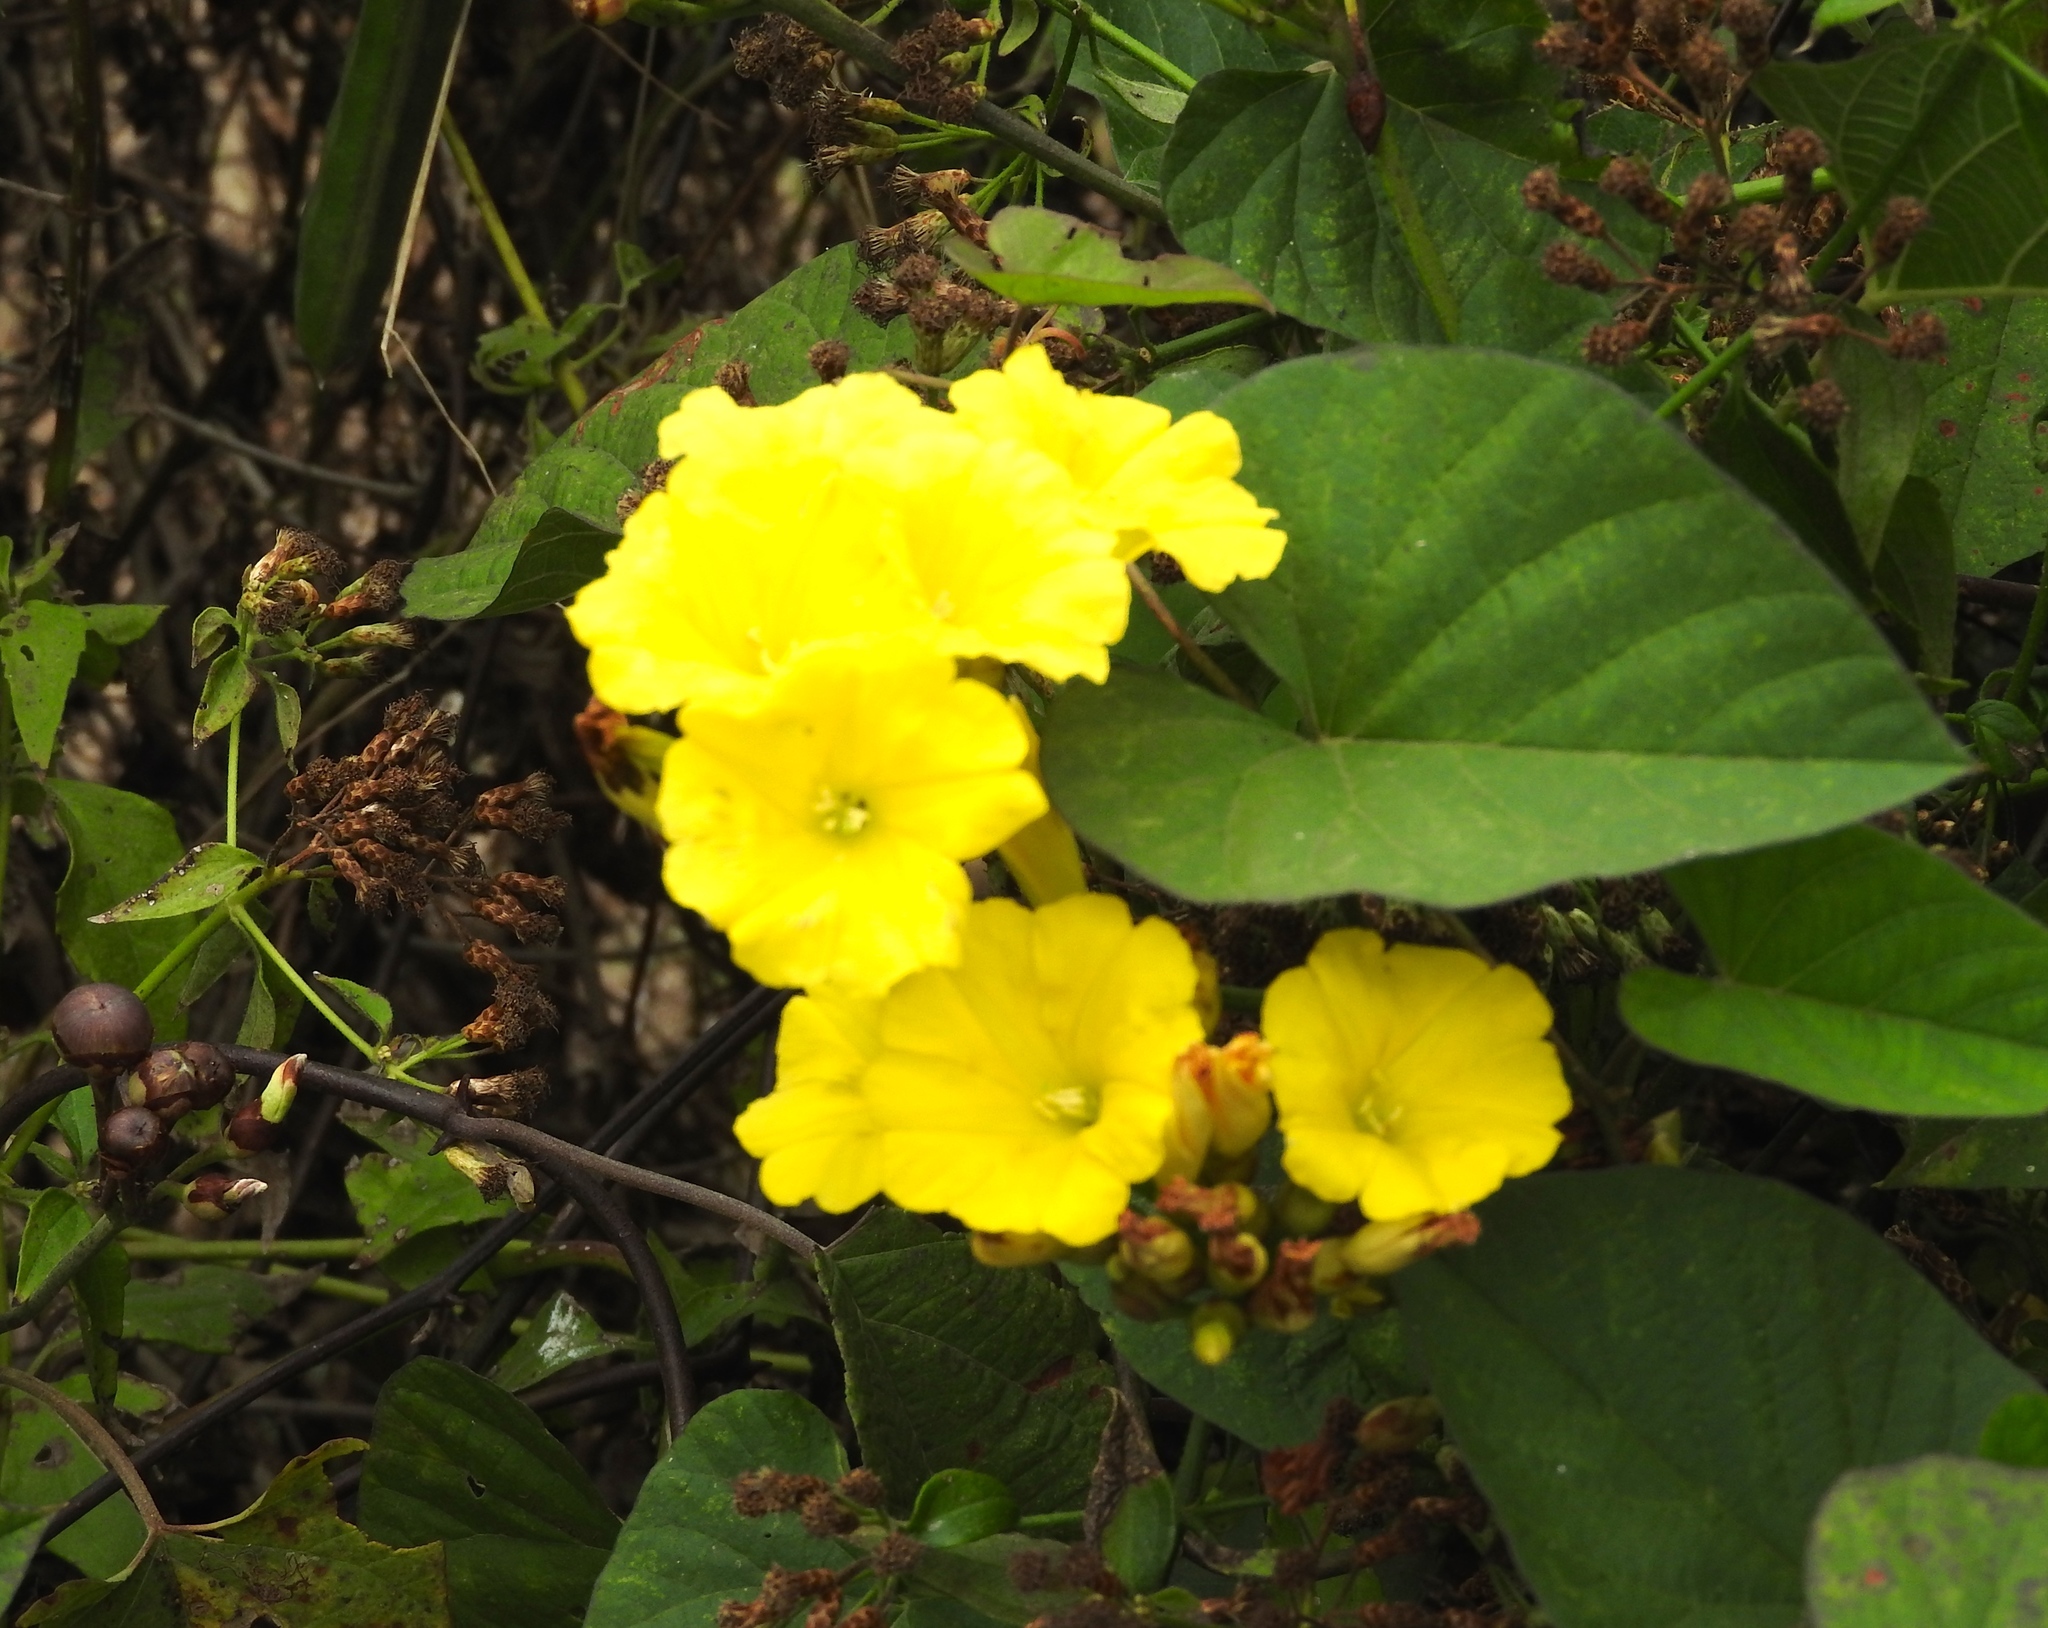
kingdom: Plantae
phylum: Tracheophyta
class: Magnoliopsida
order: Solanales
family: Convolvulaceae
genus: Camonea
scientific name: Camonea umbellata
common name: Hogvine
